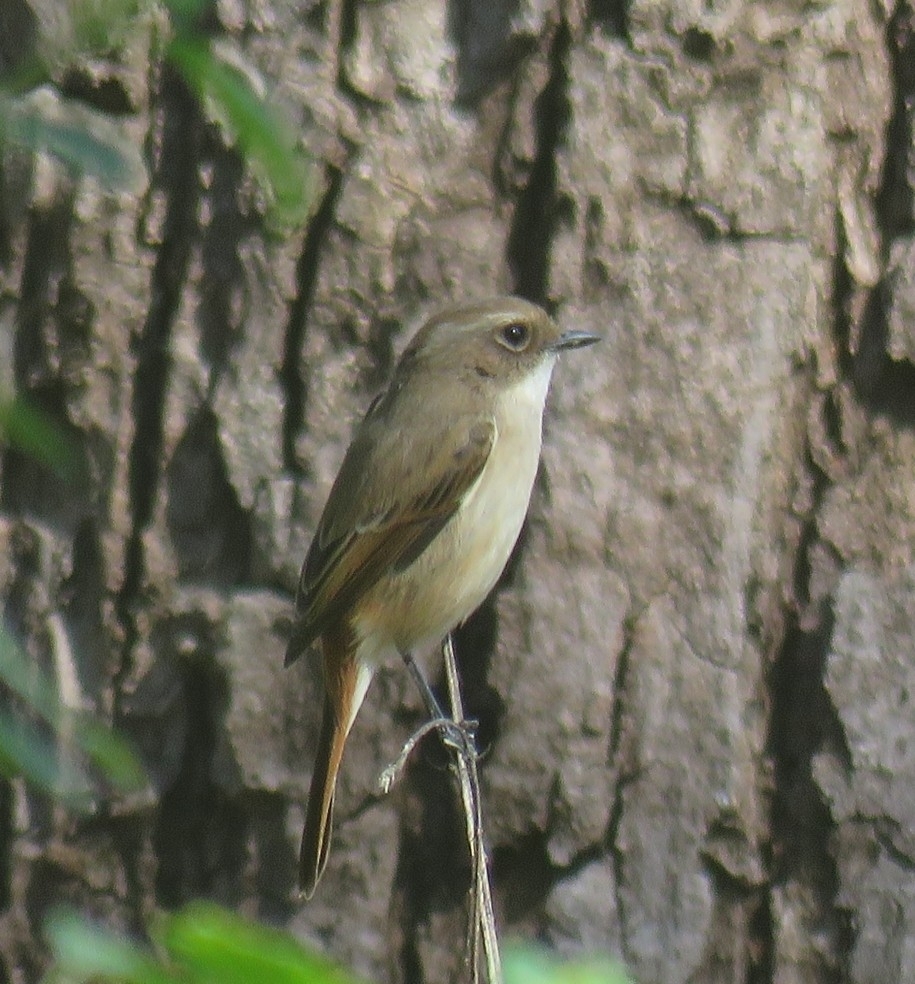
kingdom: Animalia
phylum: Chordata
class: Aves
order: Passeriformes
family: Muscicapidae
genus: Saxicola
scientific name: Saxicola ferreus
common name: Grey bush chat
